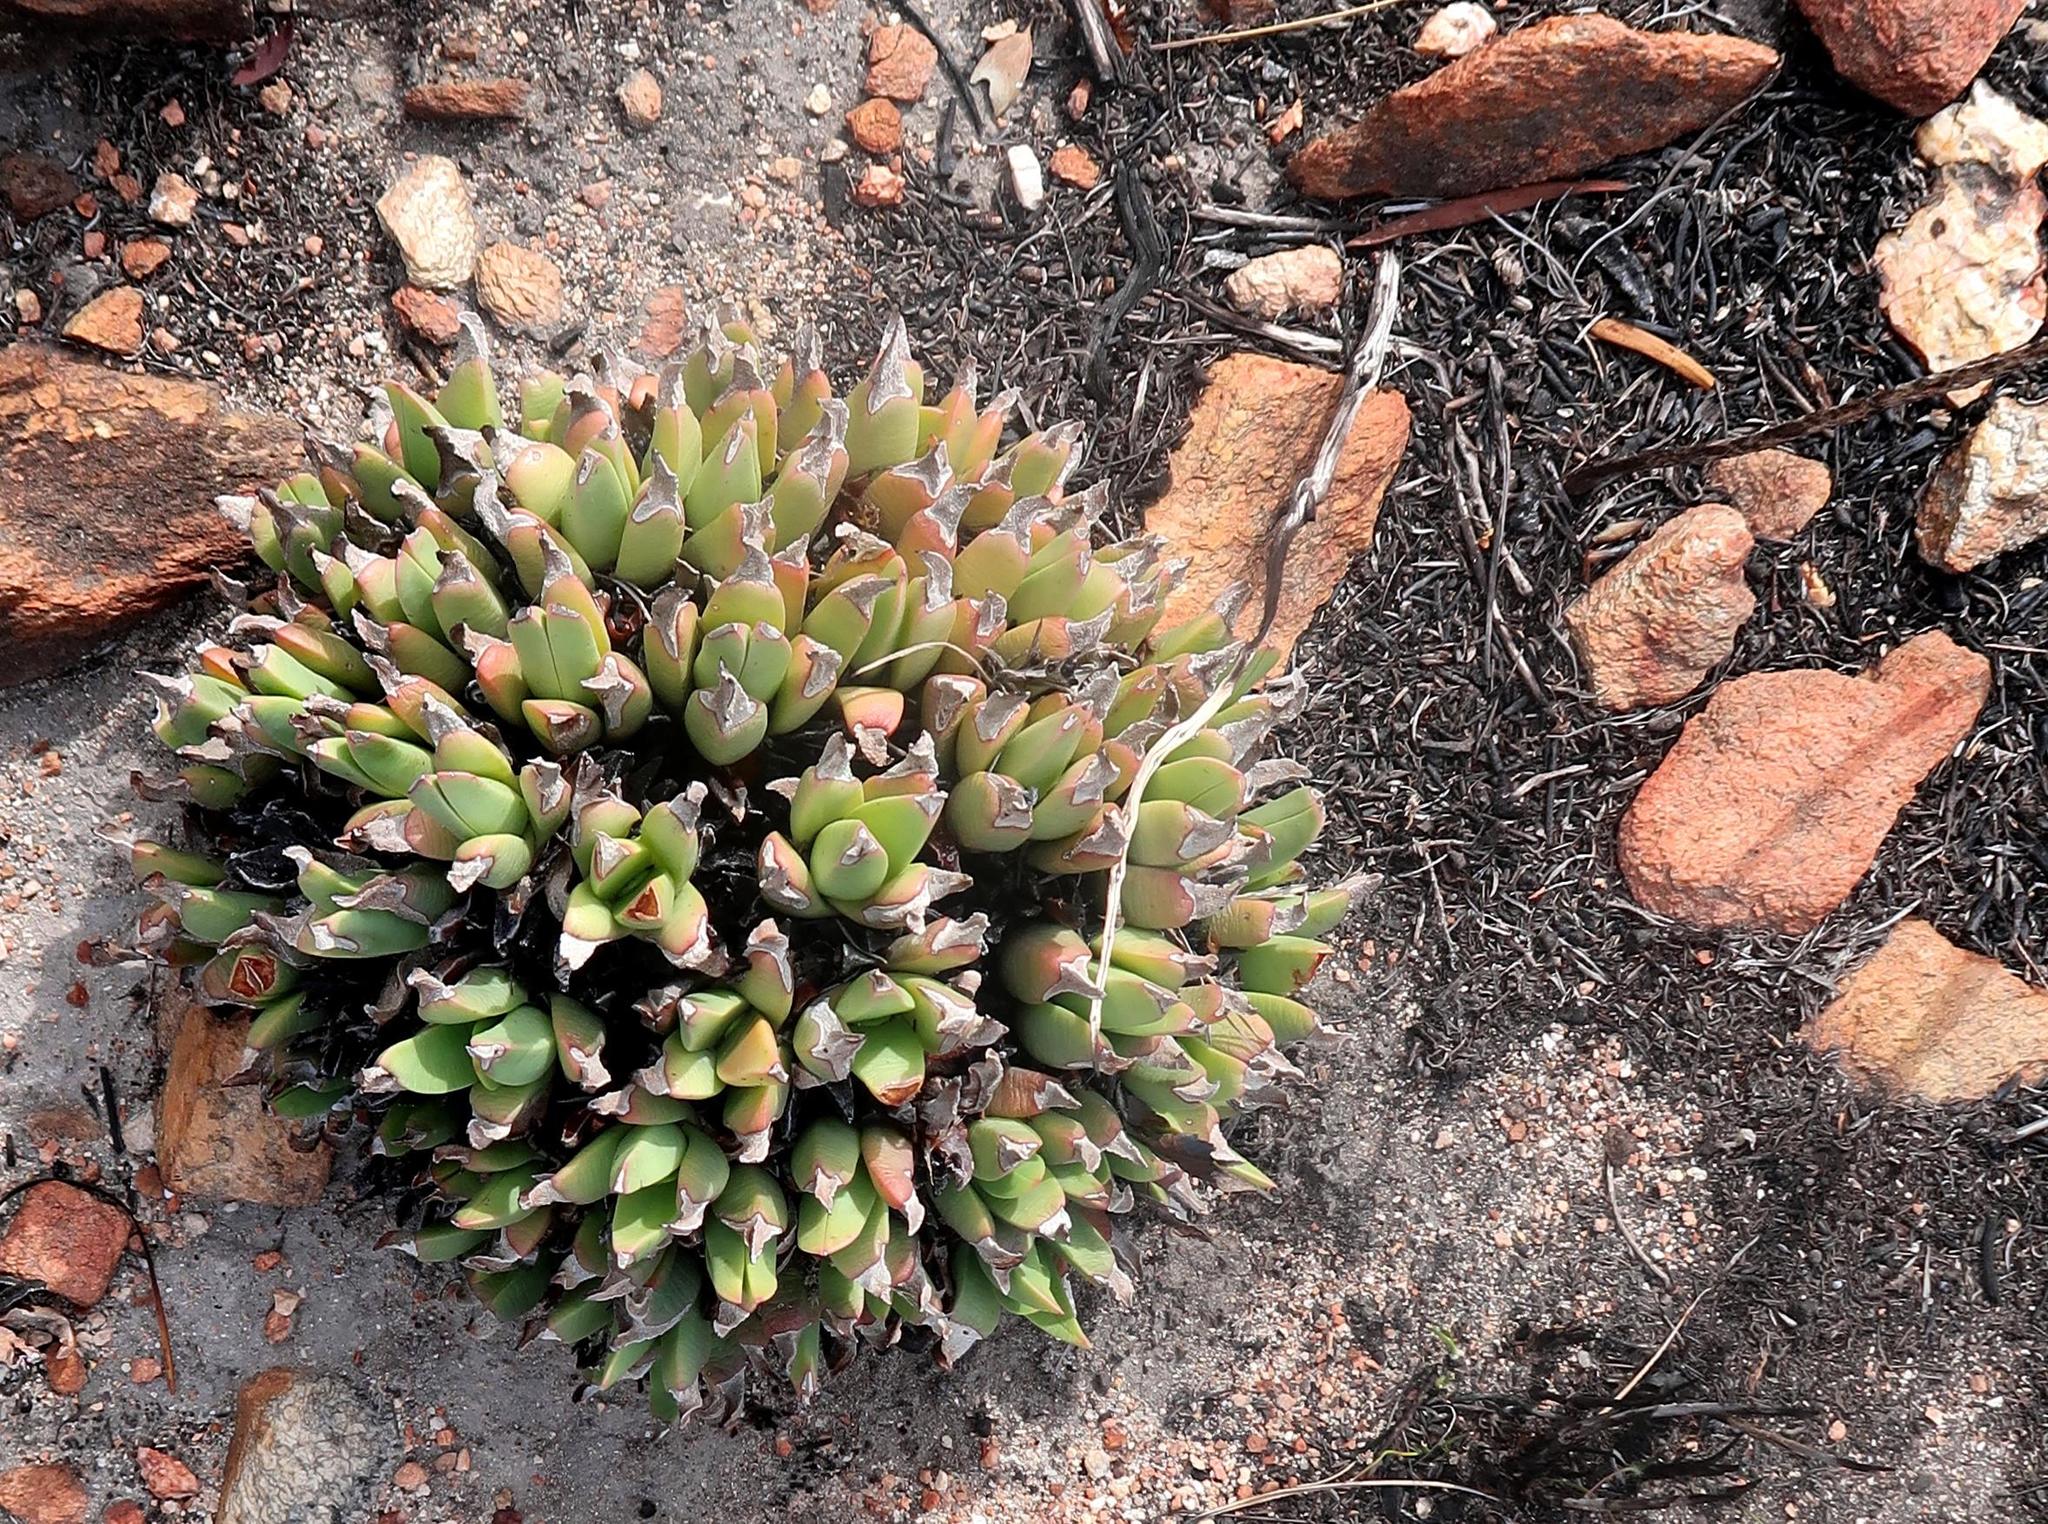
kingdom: Plantae
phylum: Tracheophyta
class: Magnoliopsida
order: Caryophyllales
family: Aizoaceae
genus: Machairophyllum
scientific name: Machairophyllum albidum
